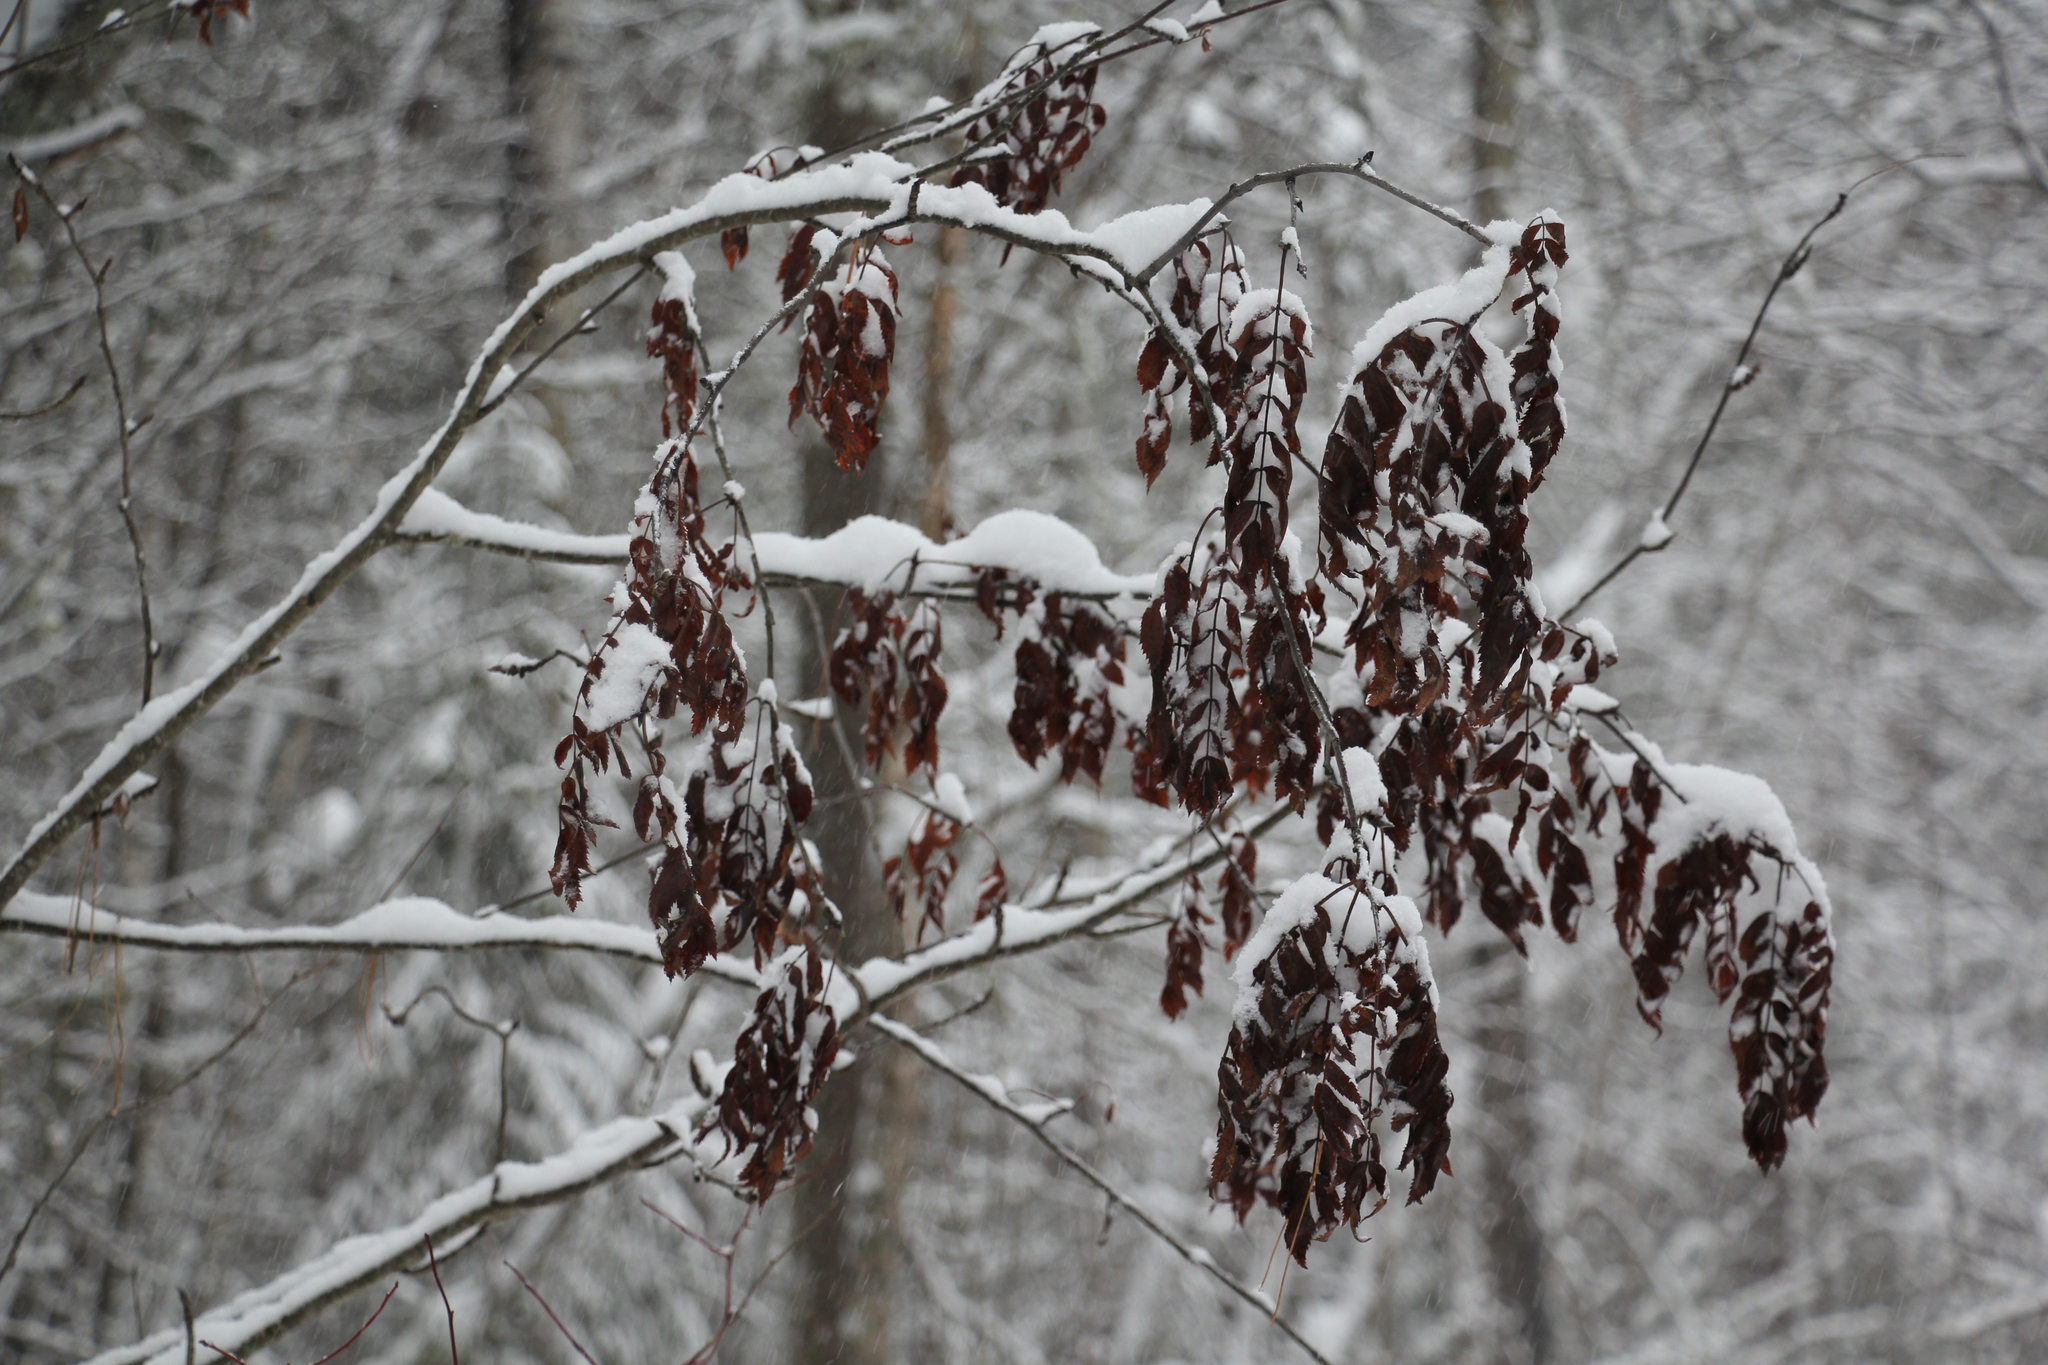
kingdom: Plantae
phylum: Tracheophyta
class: Magnoliopsida
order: Rosales
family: Rosaceae
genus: Sorbus
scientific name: Sorbus aucuparia
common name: Rowan
